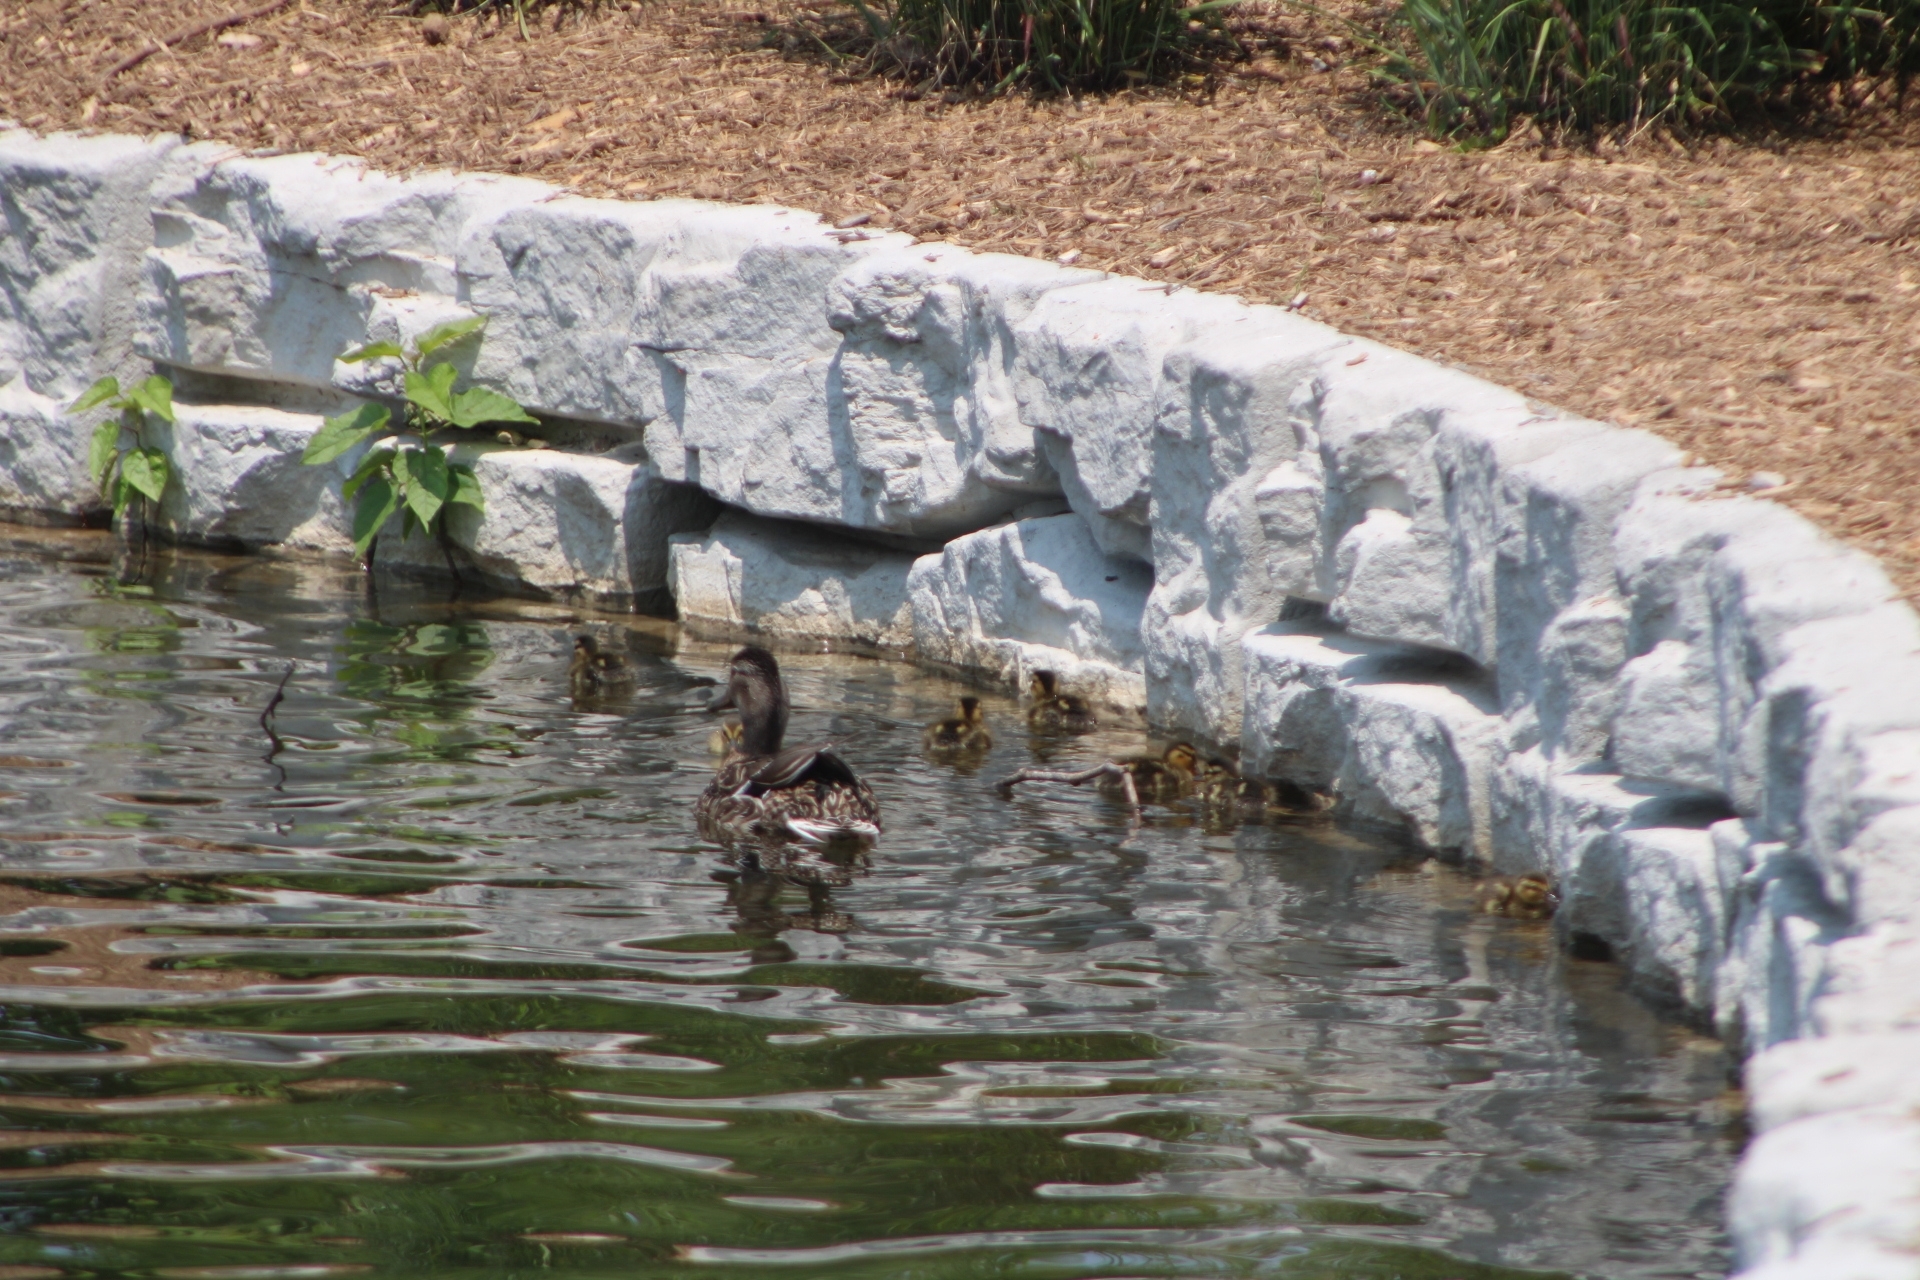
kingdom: Animalia
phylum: Chordata
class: Aves
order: Anseriformes
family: Anatidae
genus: Anas
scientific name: Anas platyrhynchos
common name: Mallard
